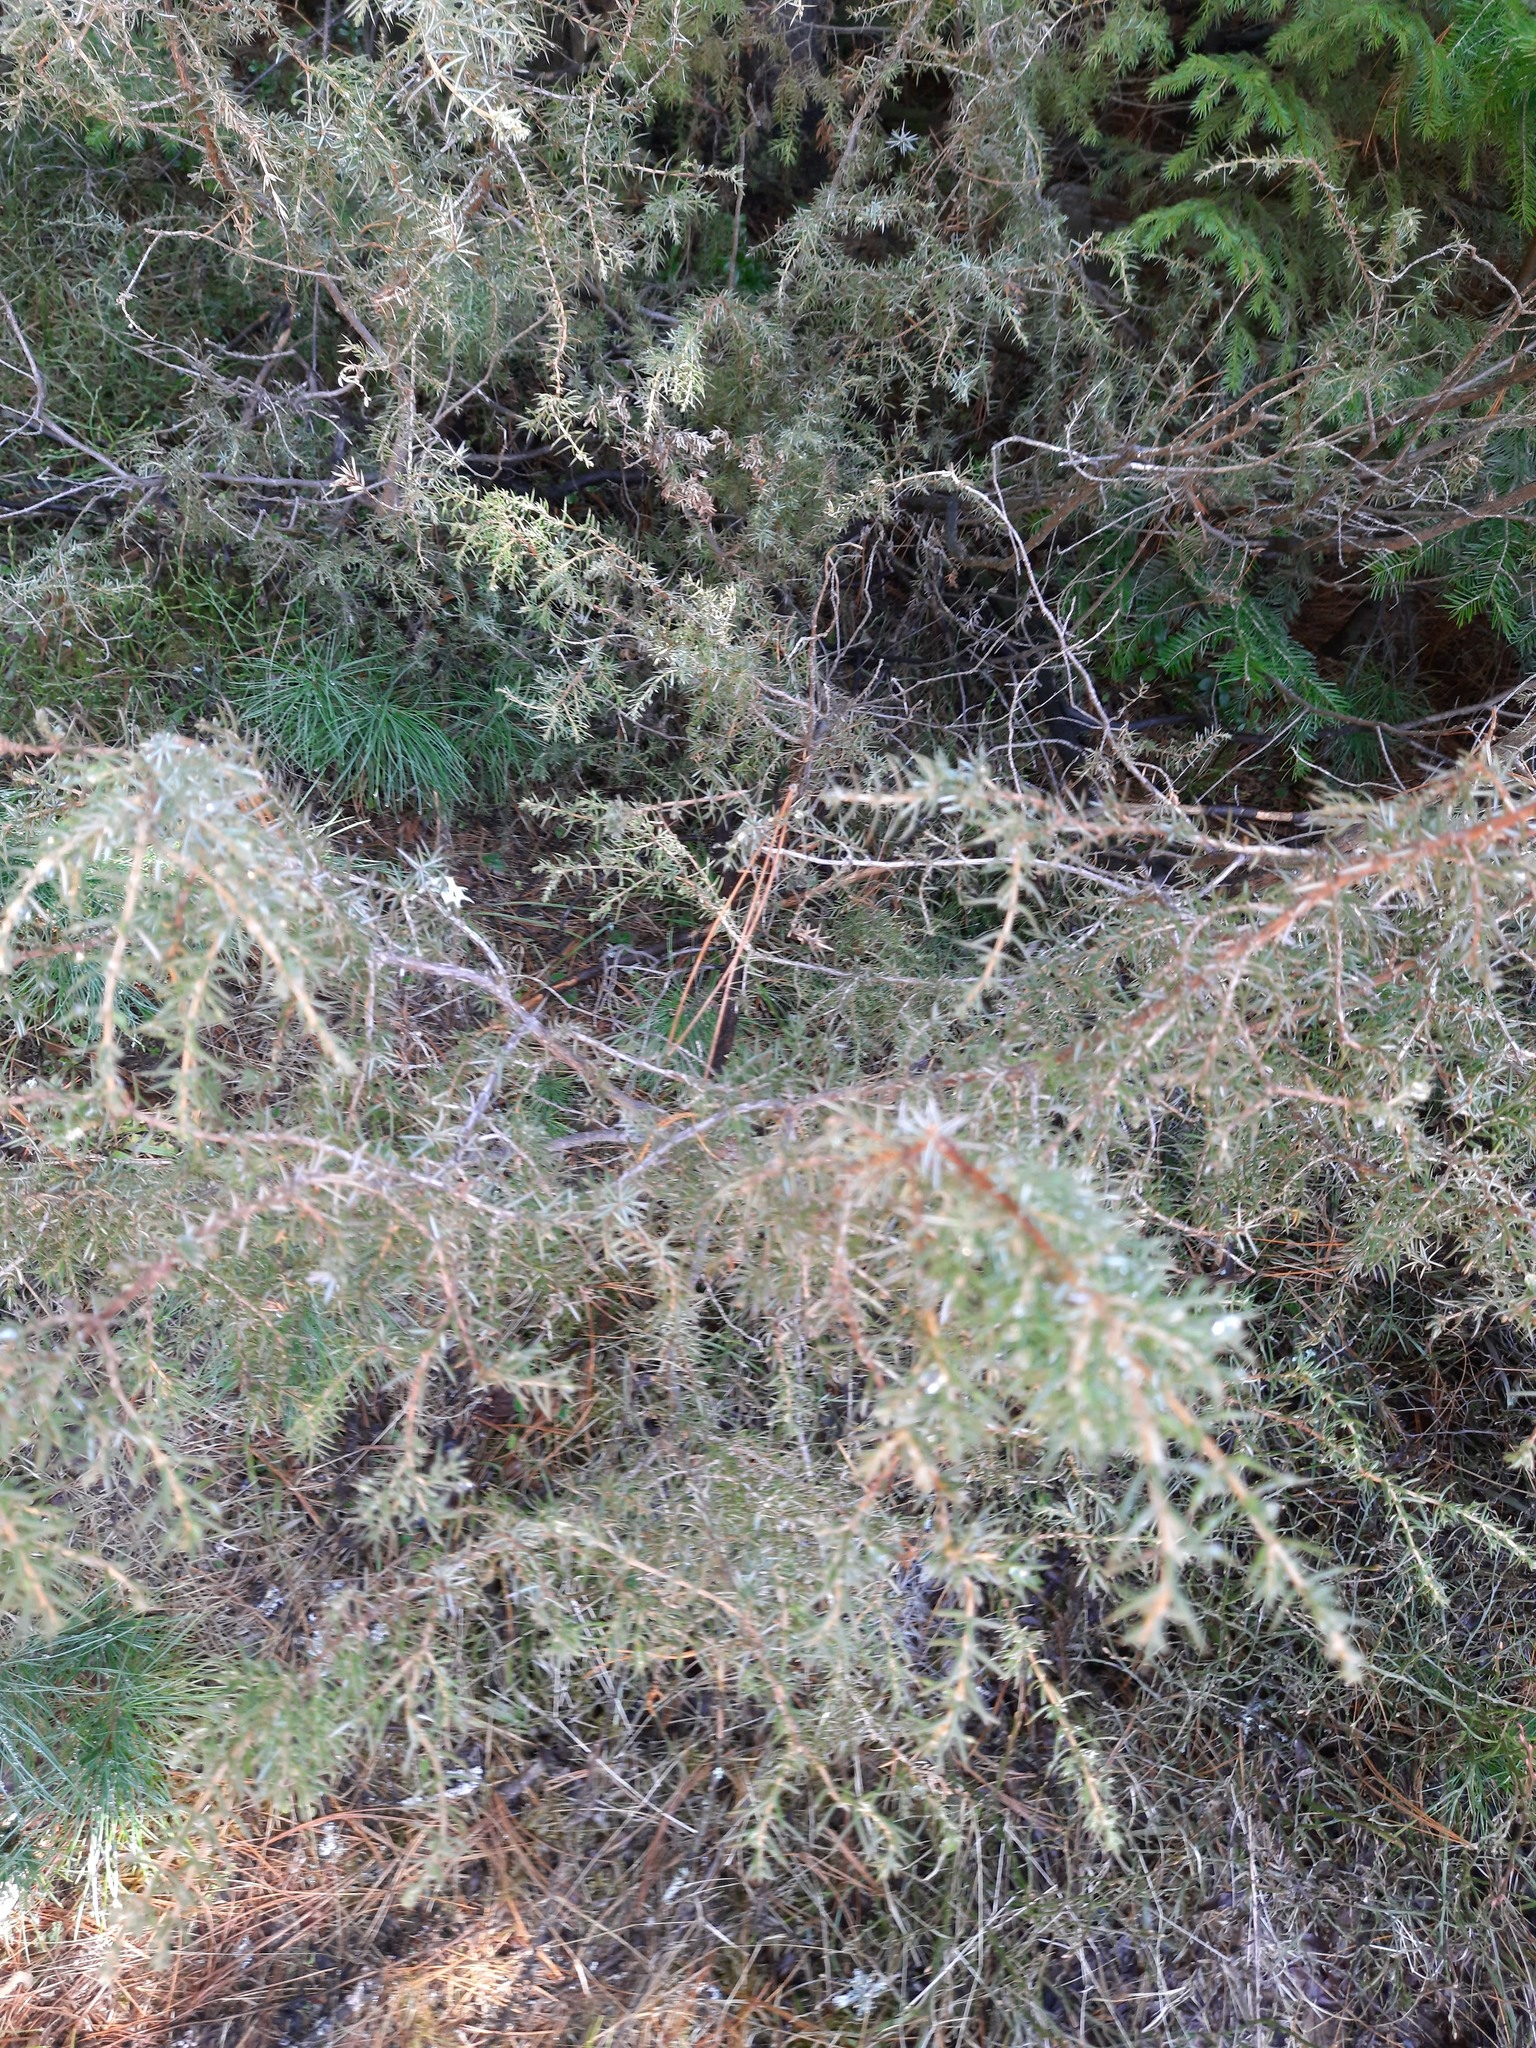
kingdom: Plantae
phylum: Tracheophyta
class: Pinopsida
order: Pinales
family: Cupressaceae
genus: Juniperus
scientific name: Juniperus communis
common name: Common juniper
